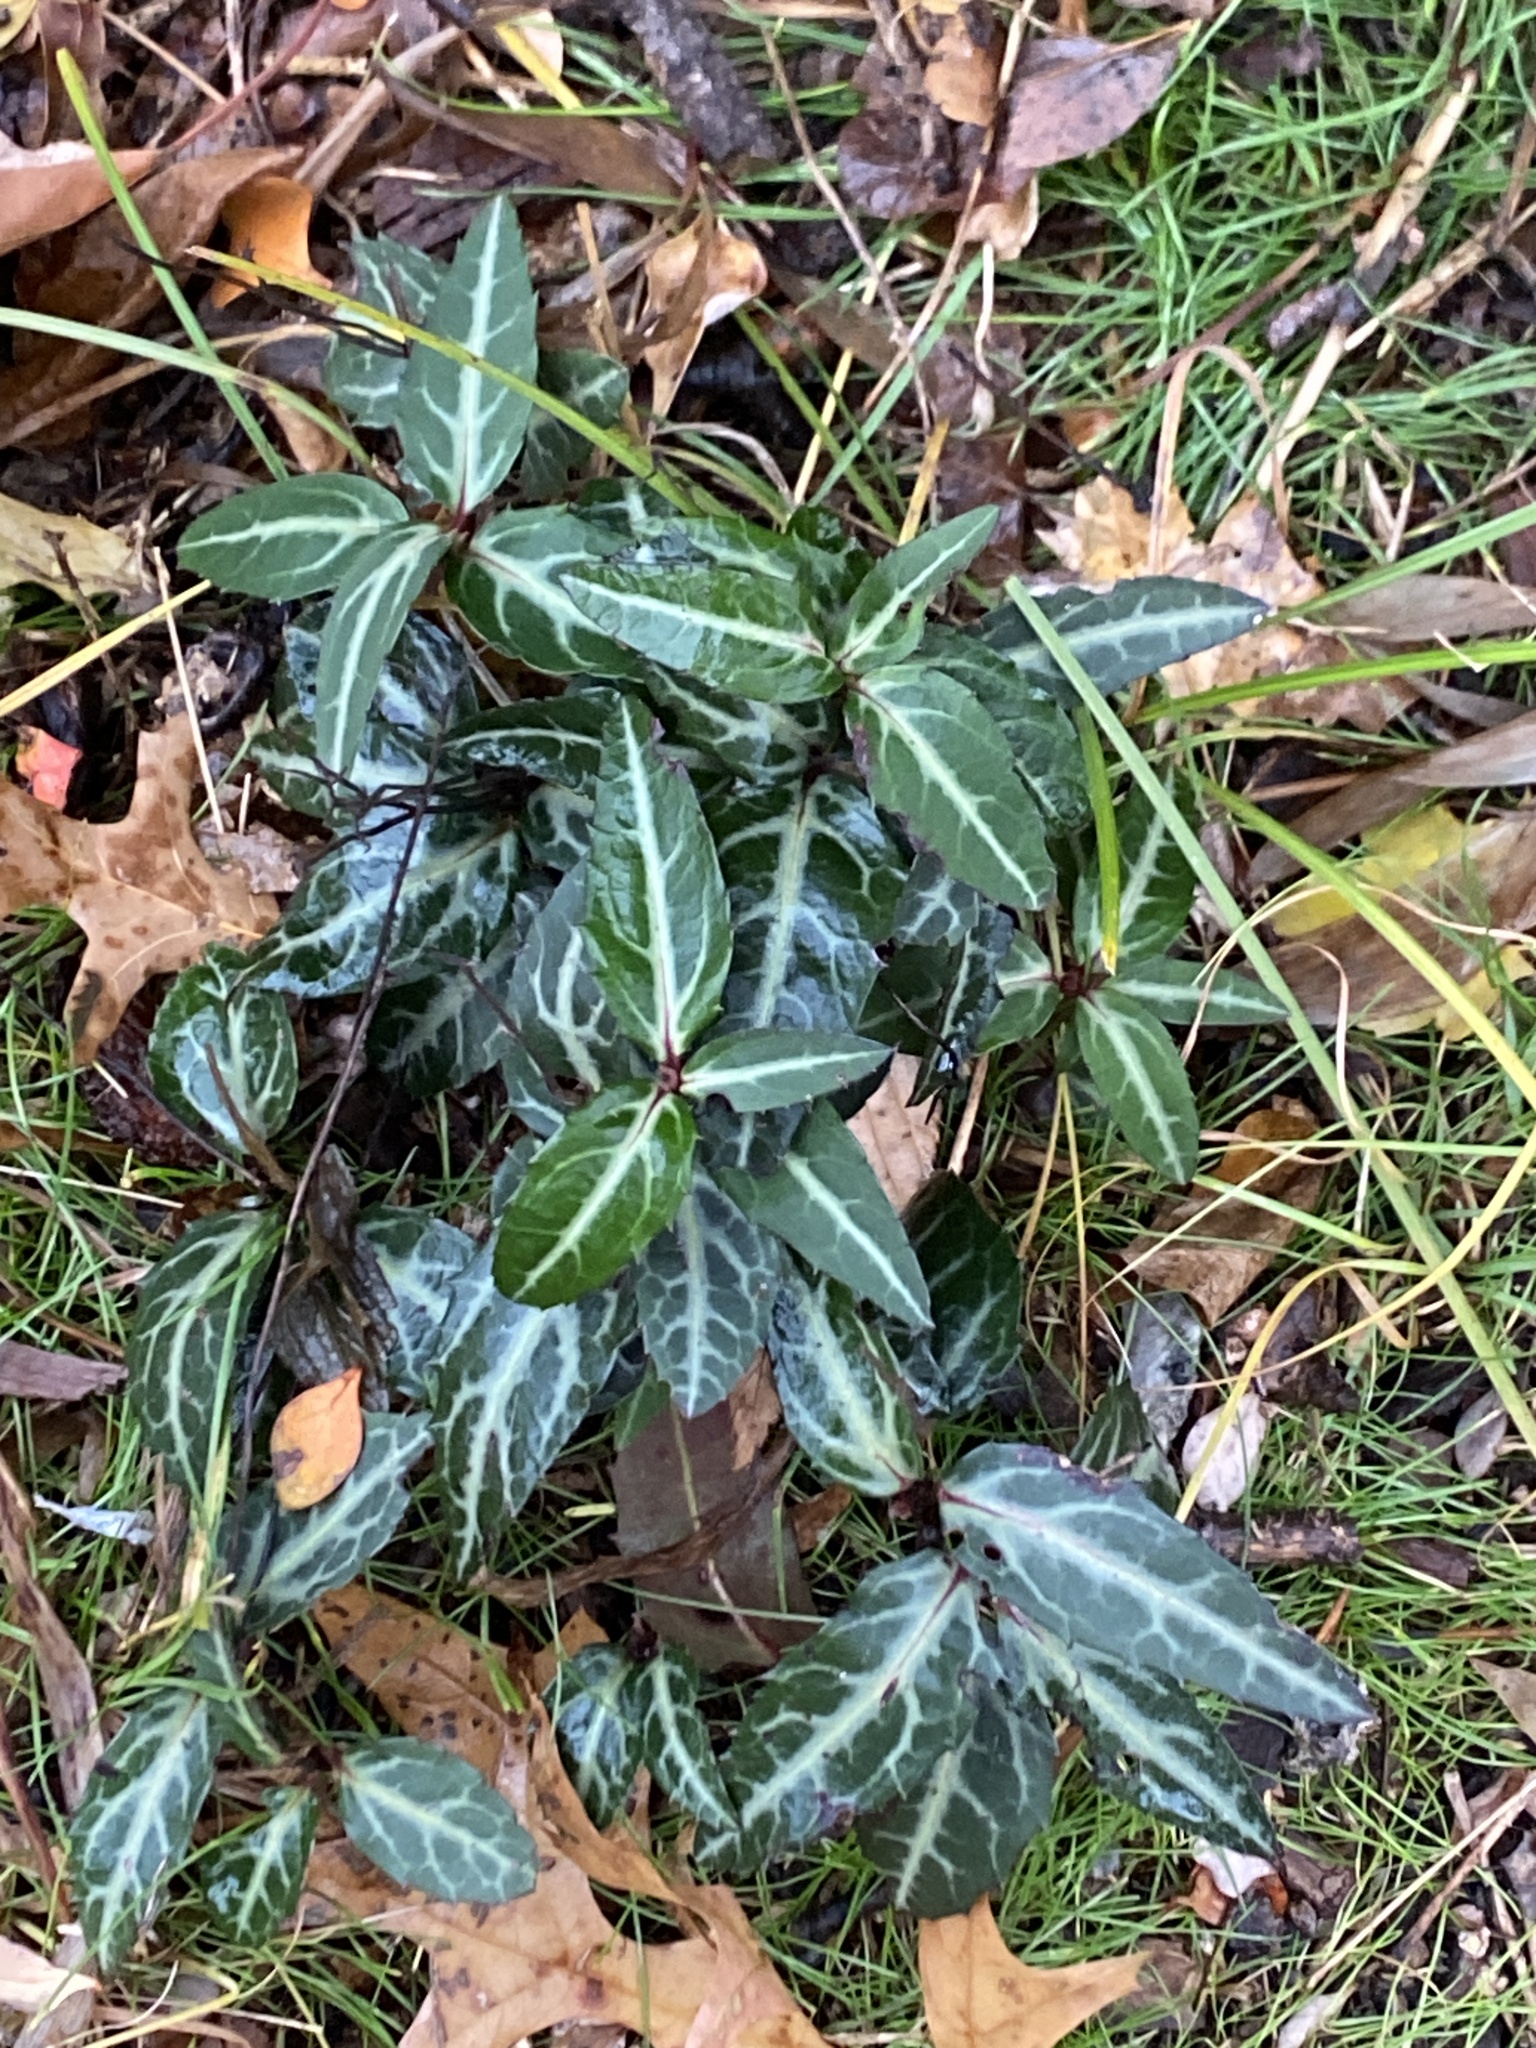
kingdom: Plantae
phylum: Tracheophyta
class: Magnoliopsida
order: Ericales
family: Ericaceae
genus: Chimaphila
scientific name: Chimaphila maculata
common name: Spotted pipsissewa
